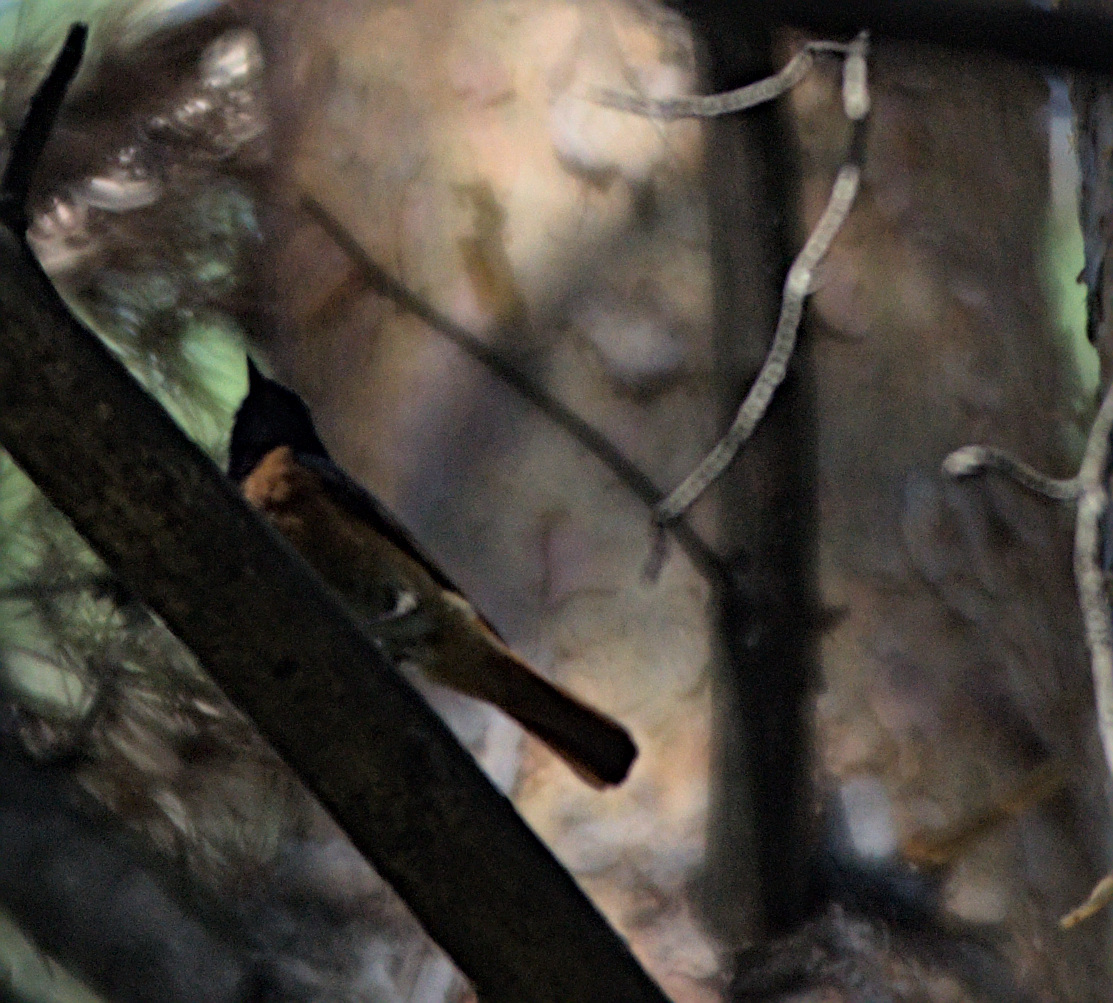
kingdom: Animalia
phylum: Chordata
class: Aves
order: Passeriformes
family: Muscicapidae
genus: Phoenicurus
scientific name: Phoenicurus phoenicurus
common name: Common redstart
